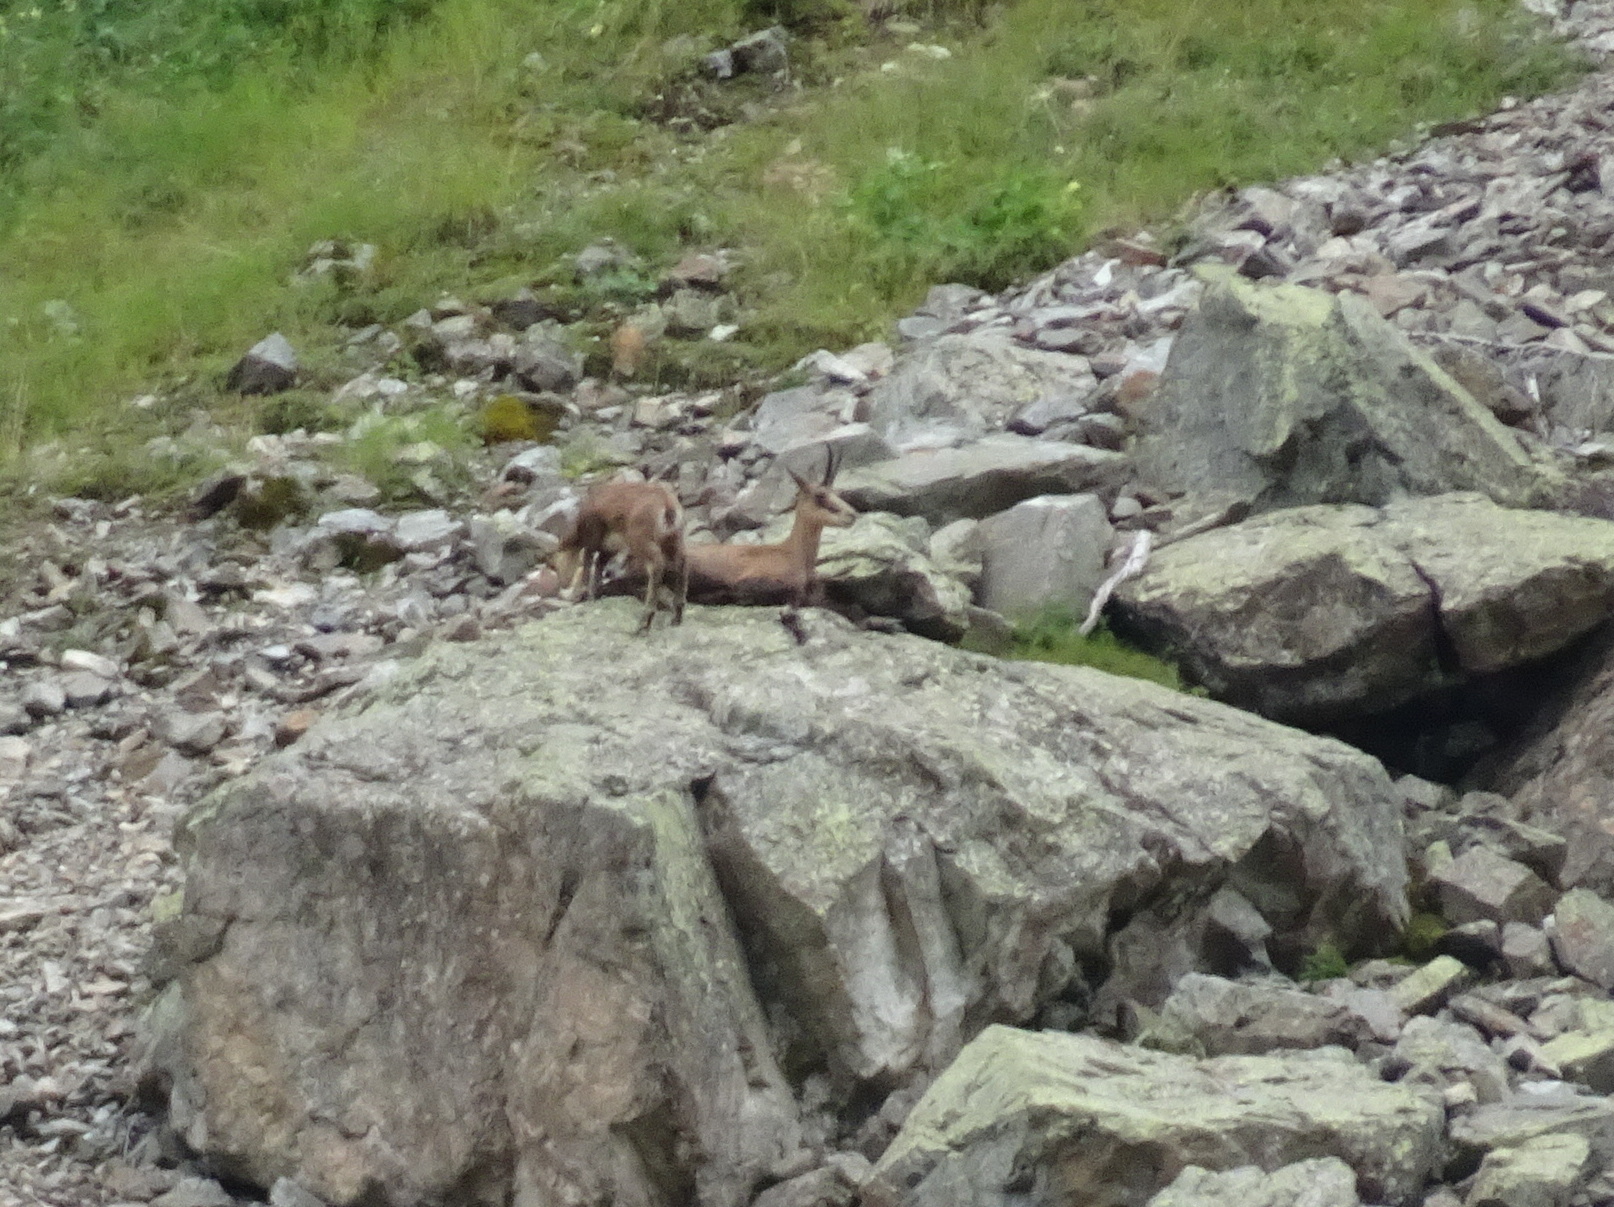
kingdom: Animalia
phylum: Chordata
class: Mammalia
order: Artiodactyla
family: Bovidae
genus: Rupicapra
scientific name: Rupicapra rupicapra
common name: Chamois
